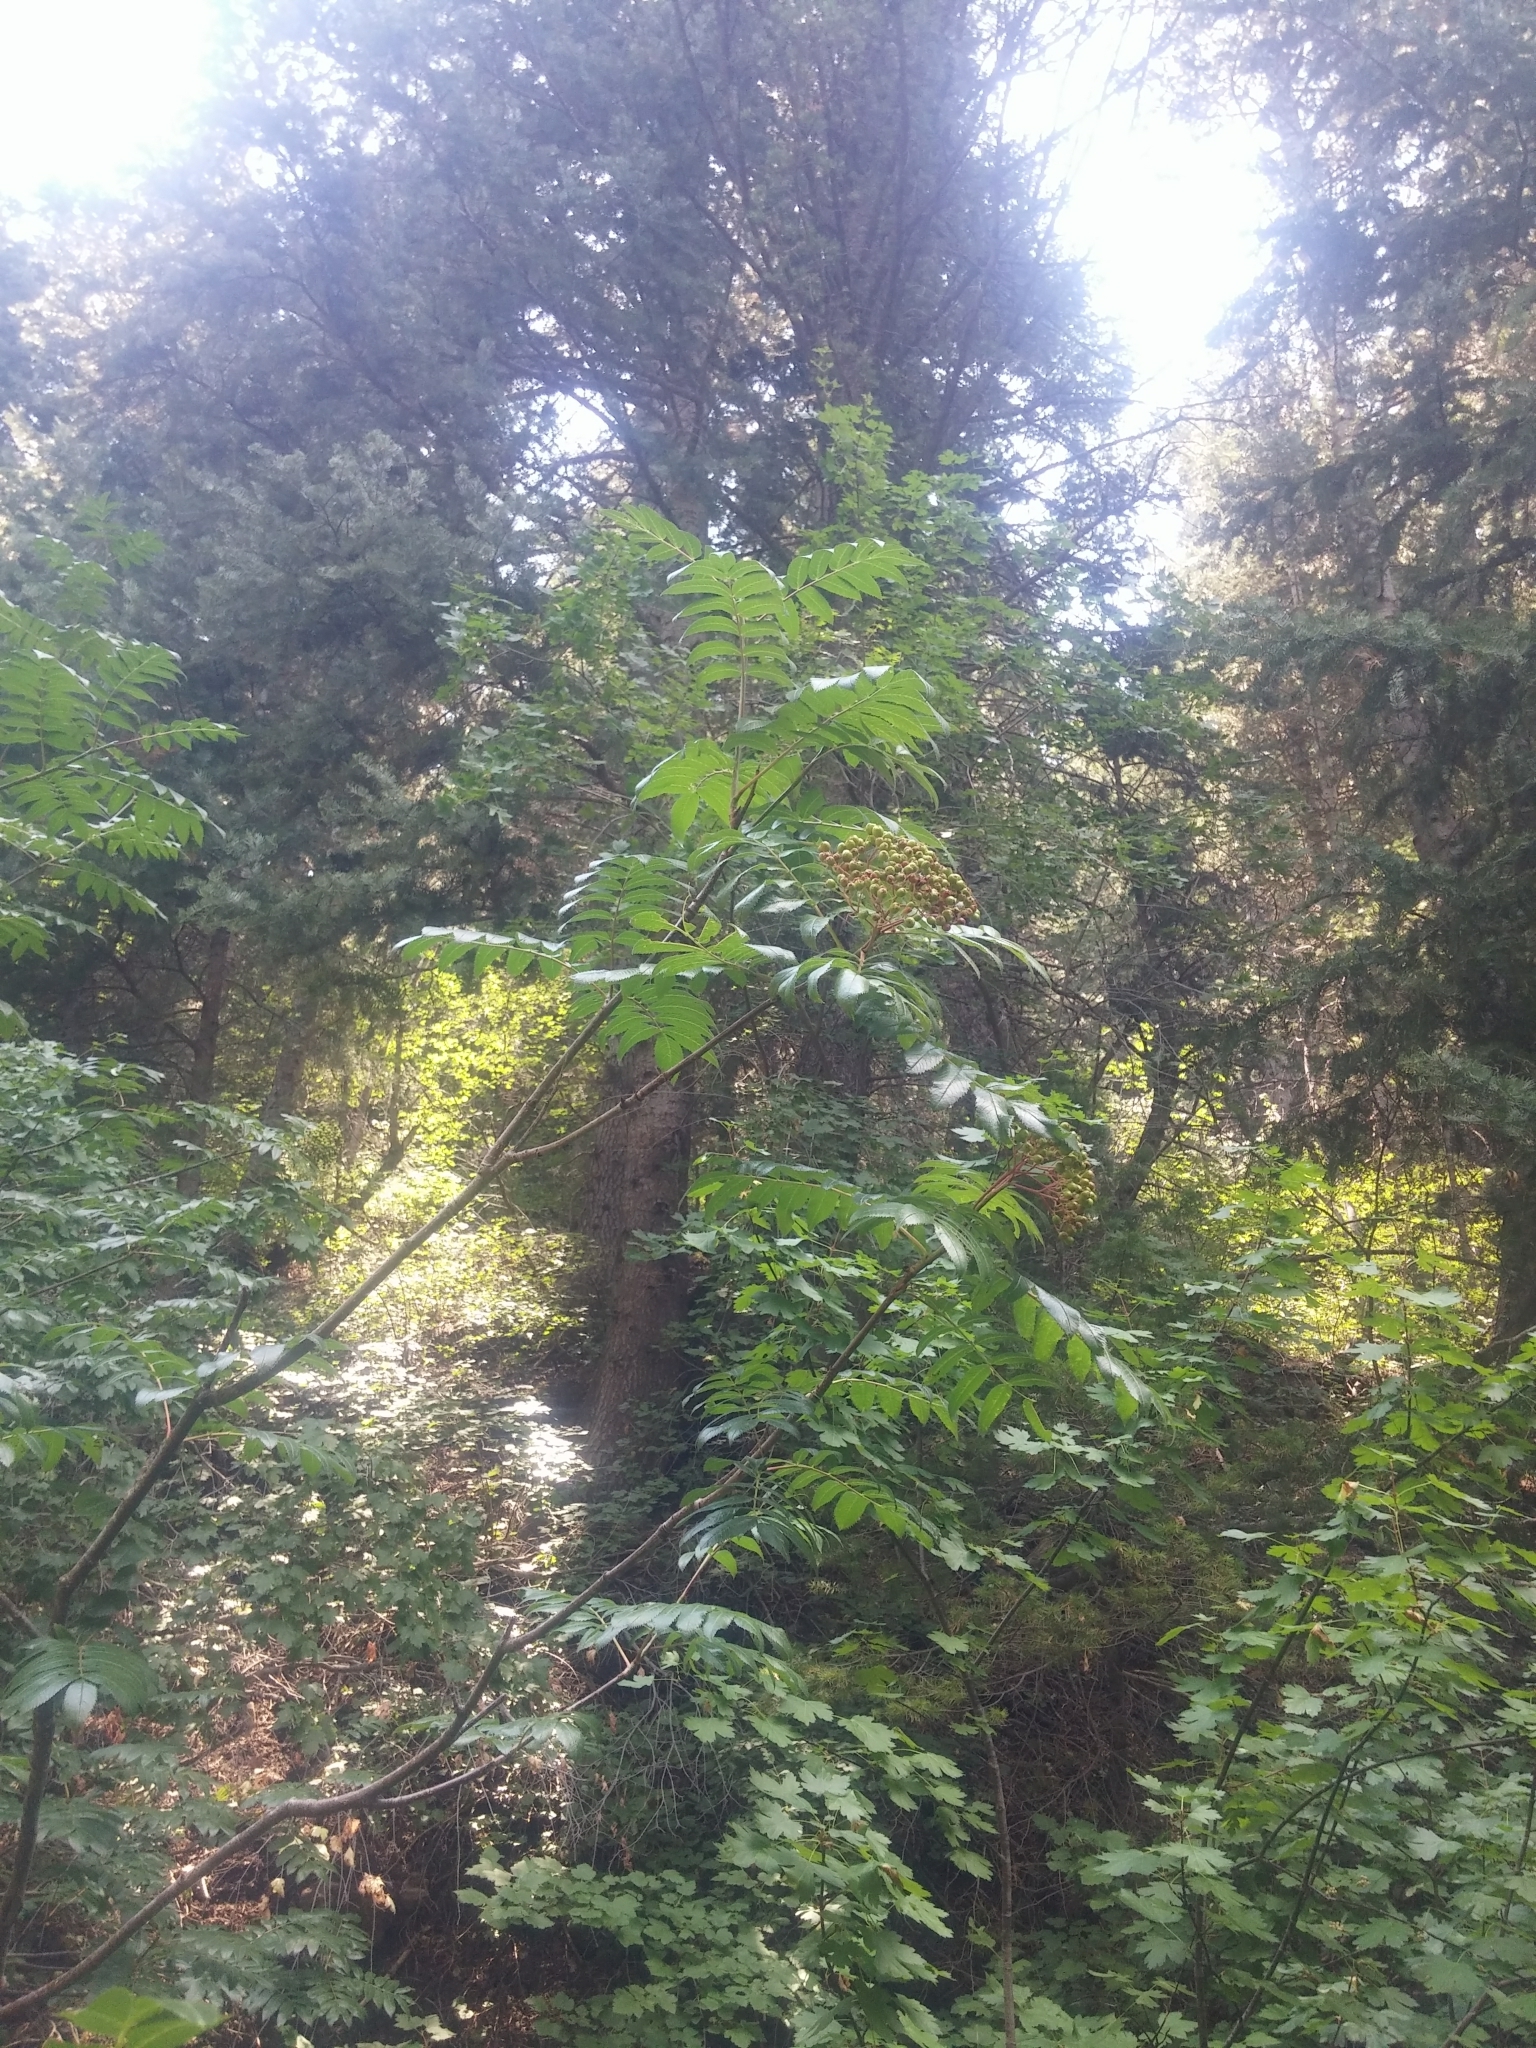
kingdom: Plantae
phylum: Tracheophyta
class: Magnoliopsida
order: Rosales
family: Rosaceae
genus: Sorbus
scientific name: Sorbus scopulina
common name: Greene's mountain-ash
